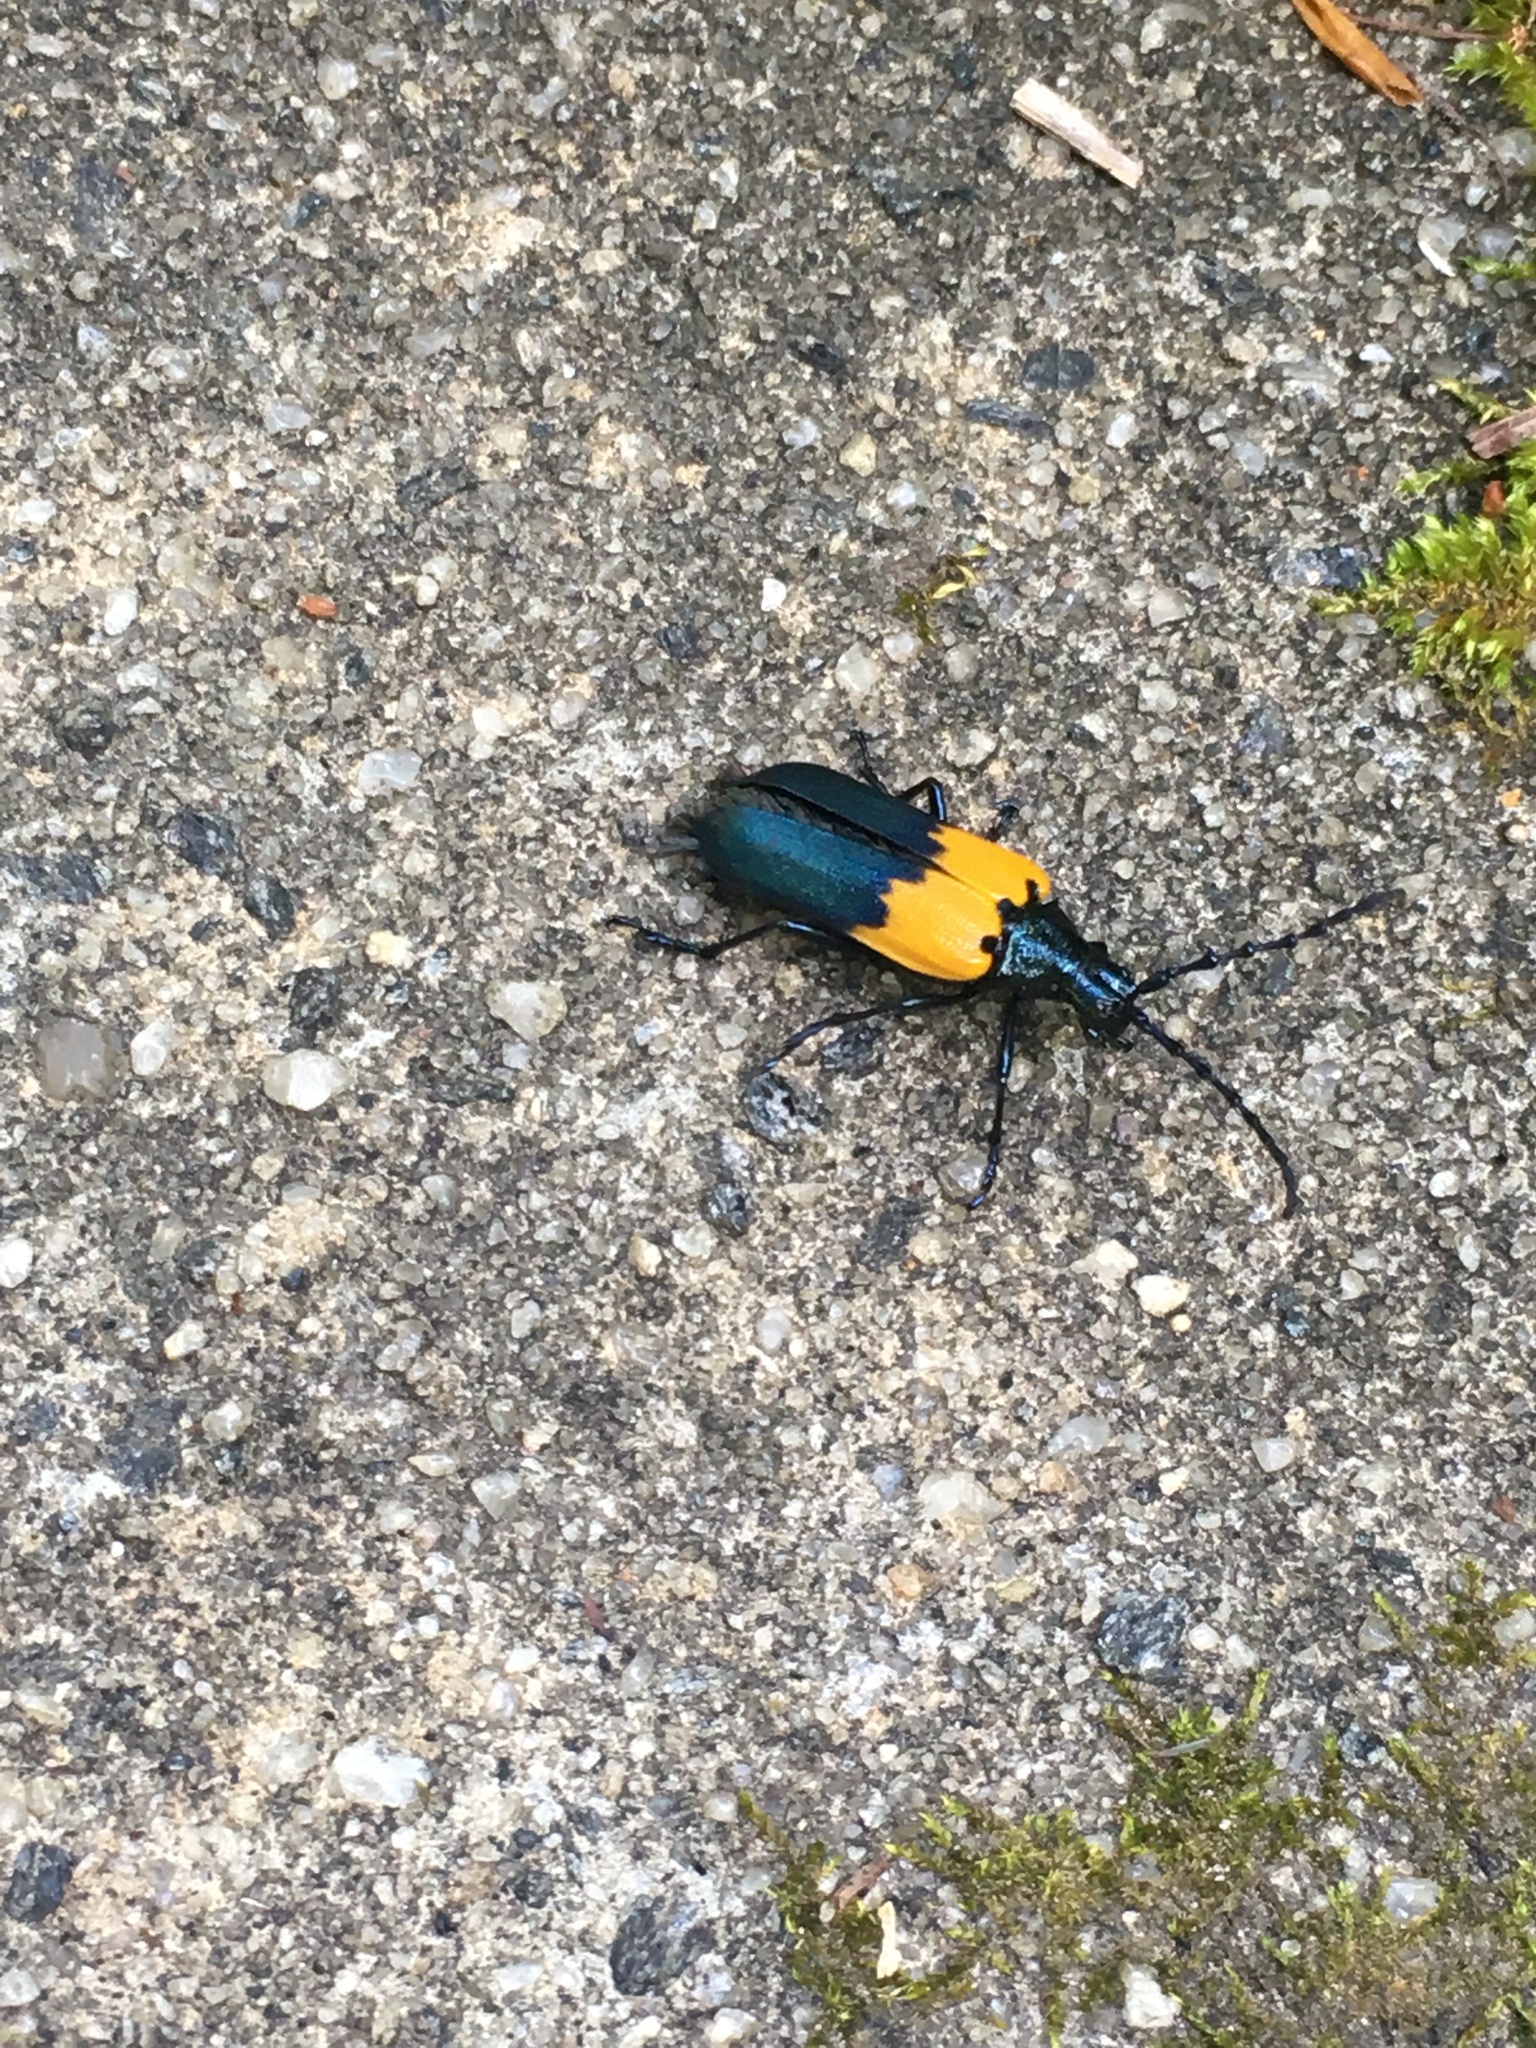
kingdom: Animalia
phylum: Arthropoda
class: Insecta
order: Coleoptera
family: Cerambycidae
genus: Desmocerus
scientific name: Desmocerus palliatus
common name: Eastern elderberry borer
